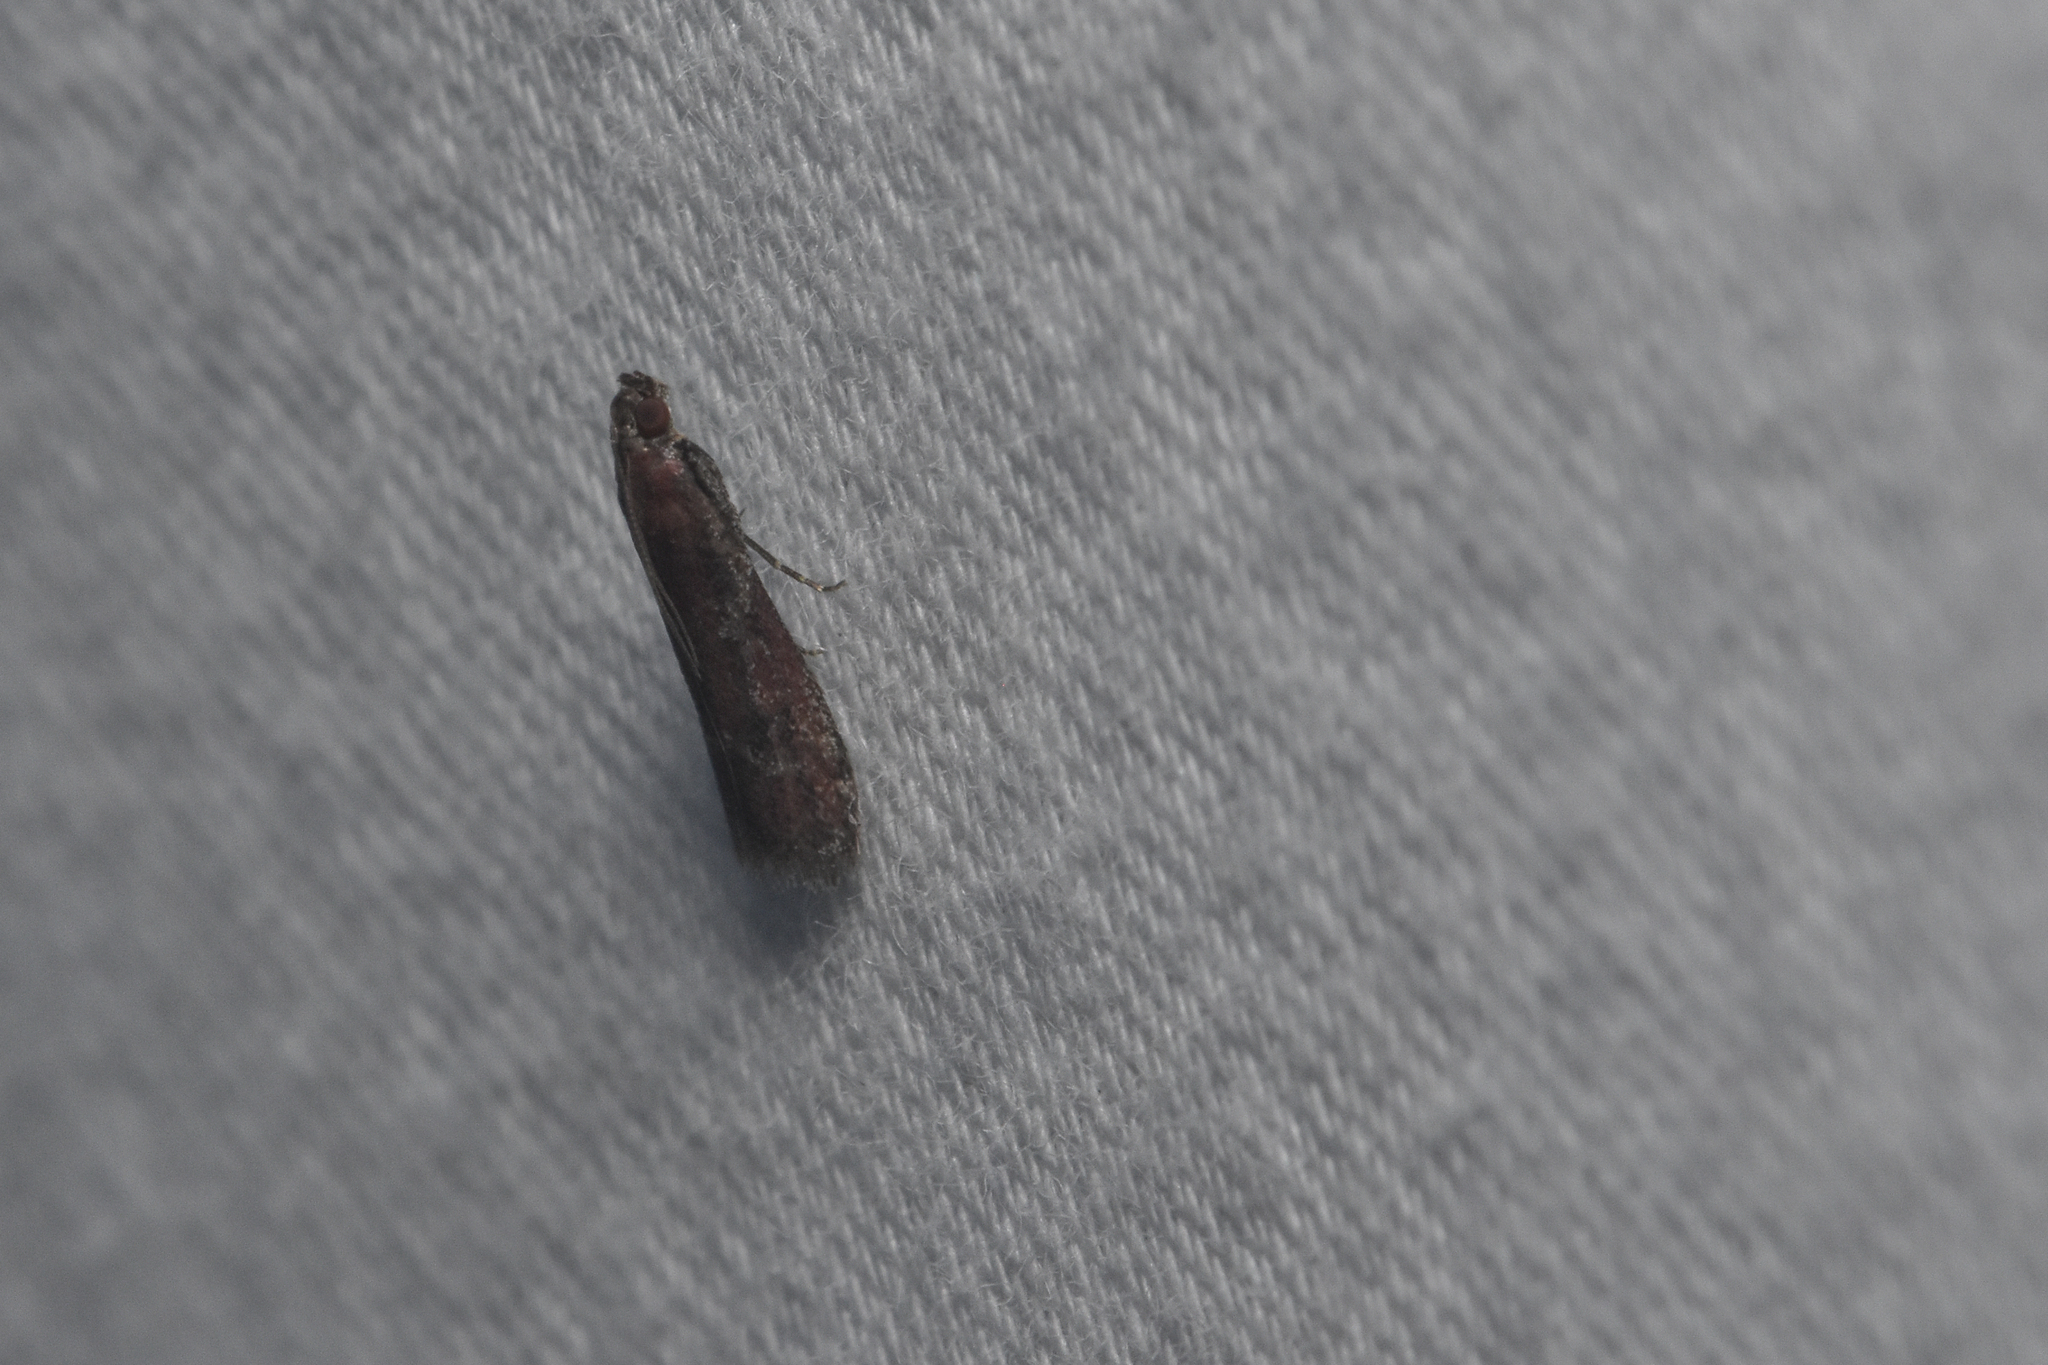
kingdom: Animalia
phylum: Arthropoda
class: Insecta
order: Lepidoptera
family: Pyralidae
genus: Ephestiodes
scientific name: Ephestiodes erythrella
